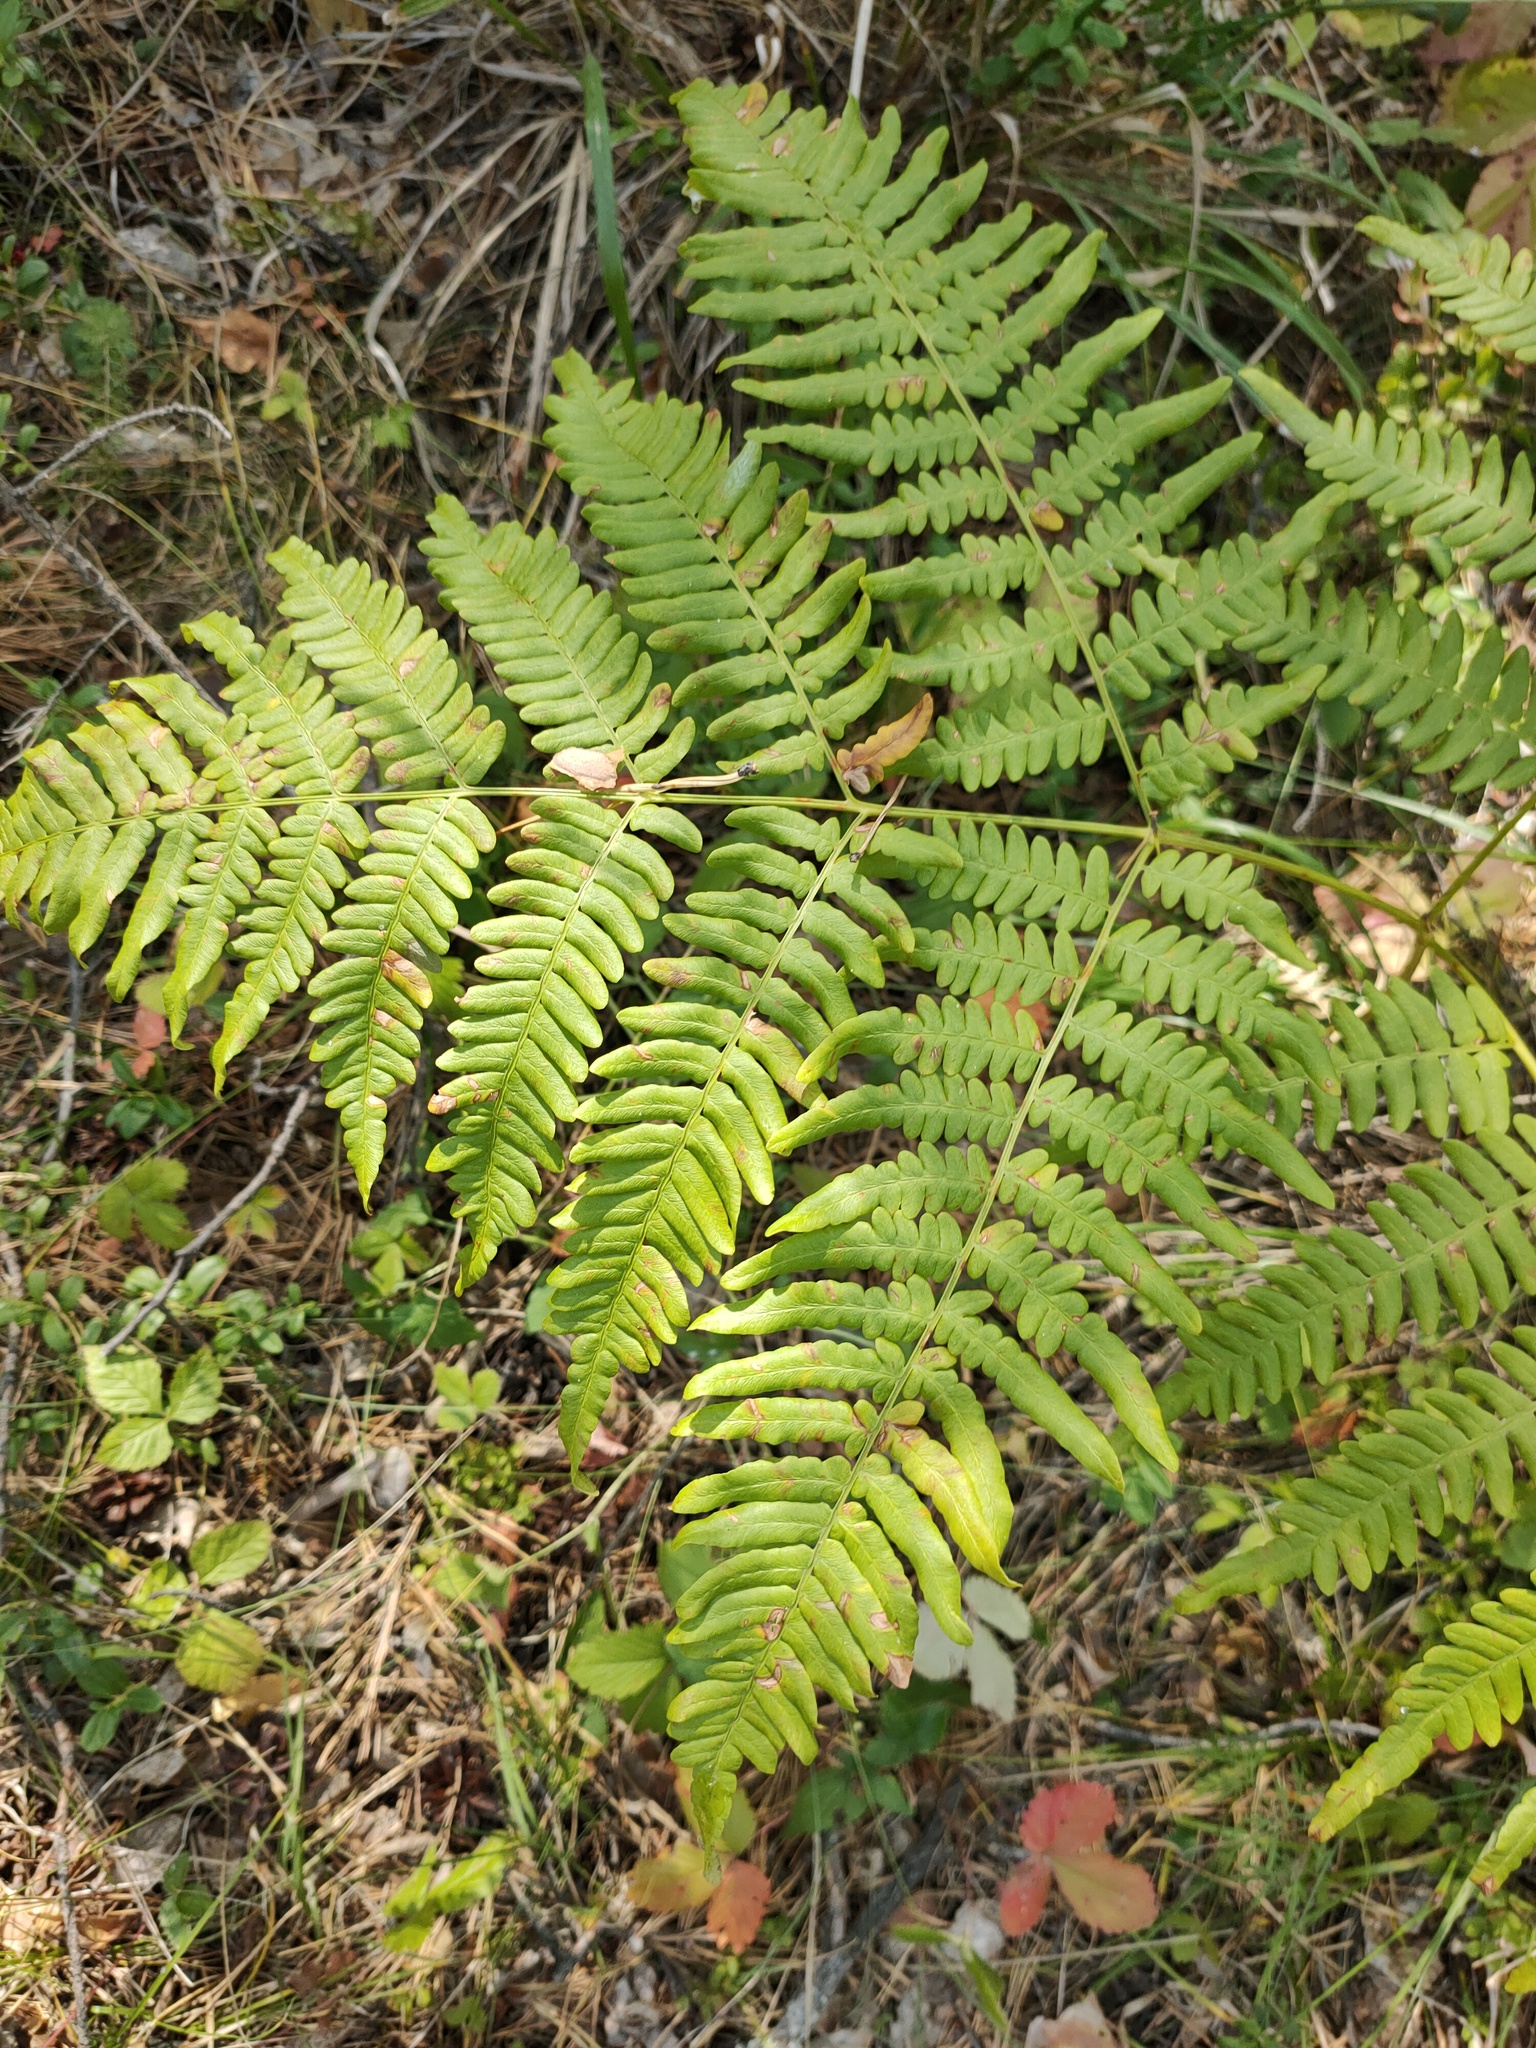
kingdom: Plantae
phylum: Tracheophyta
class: Polypodiopsida
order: Polypodiales
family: Dennstaedtiaceae
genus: Pteridium
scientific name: Pteridium aquilinum
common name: Bracken
